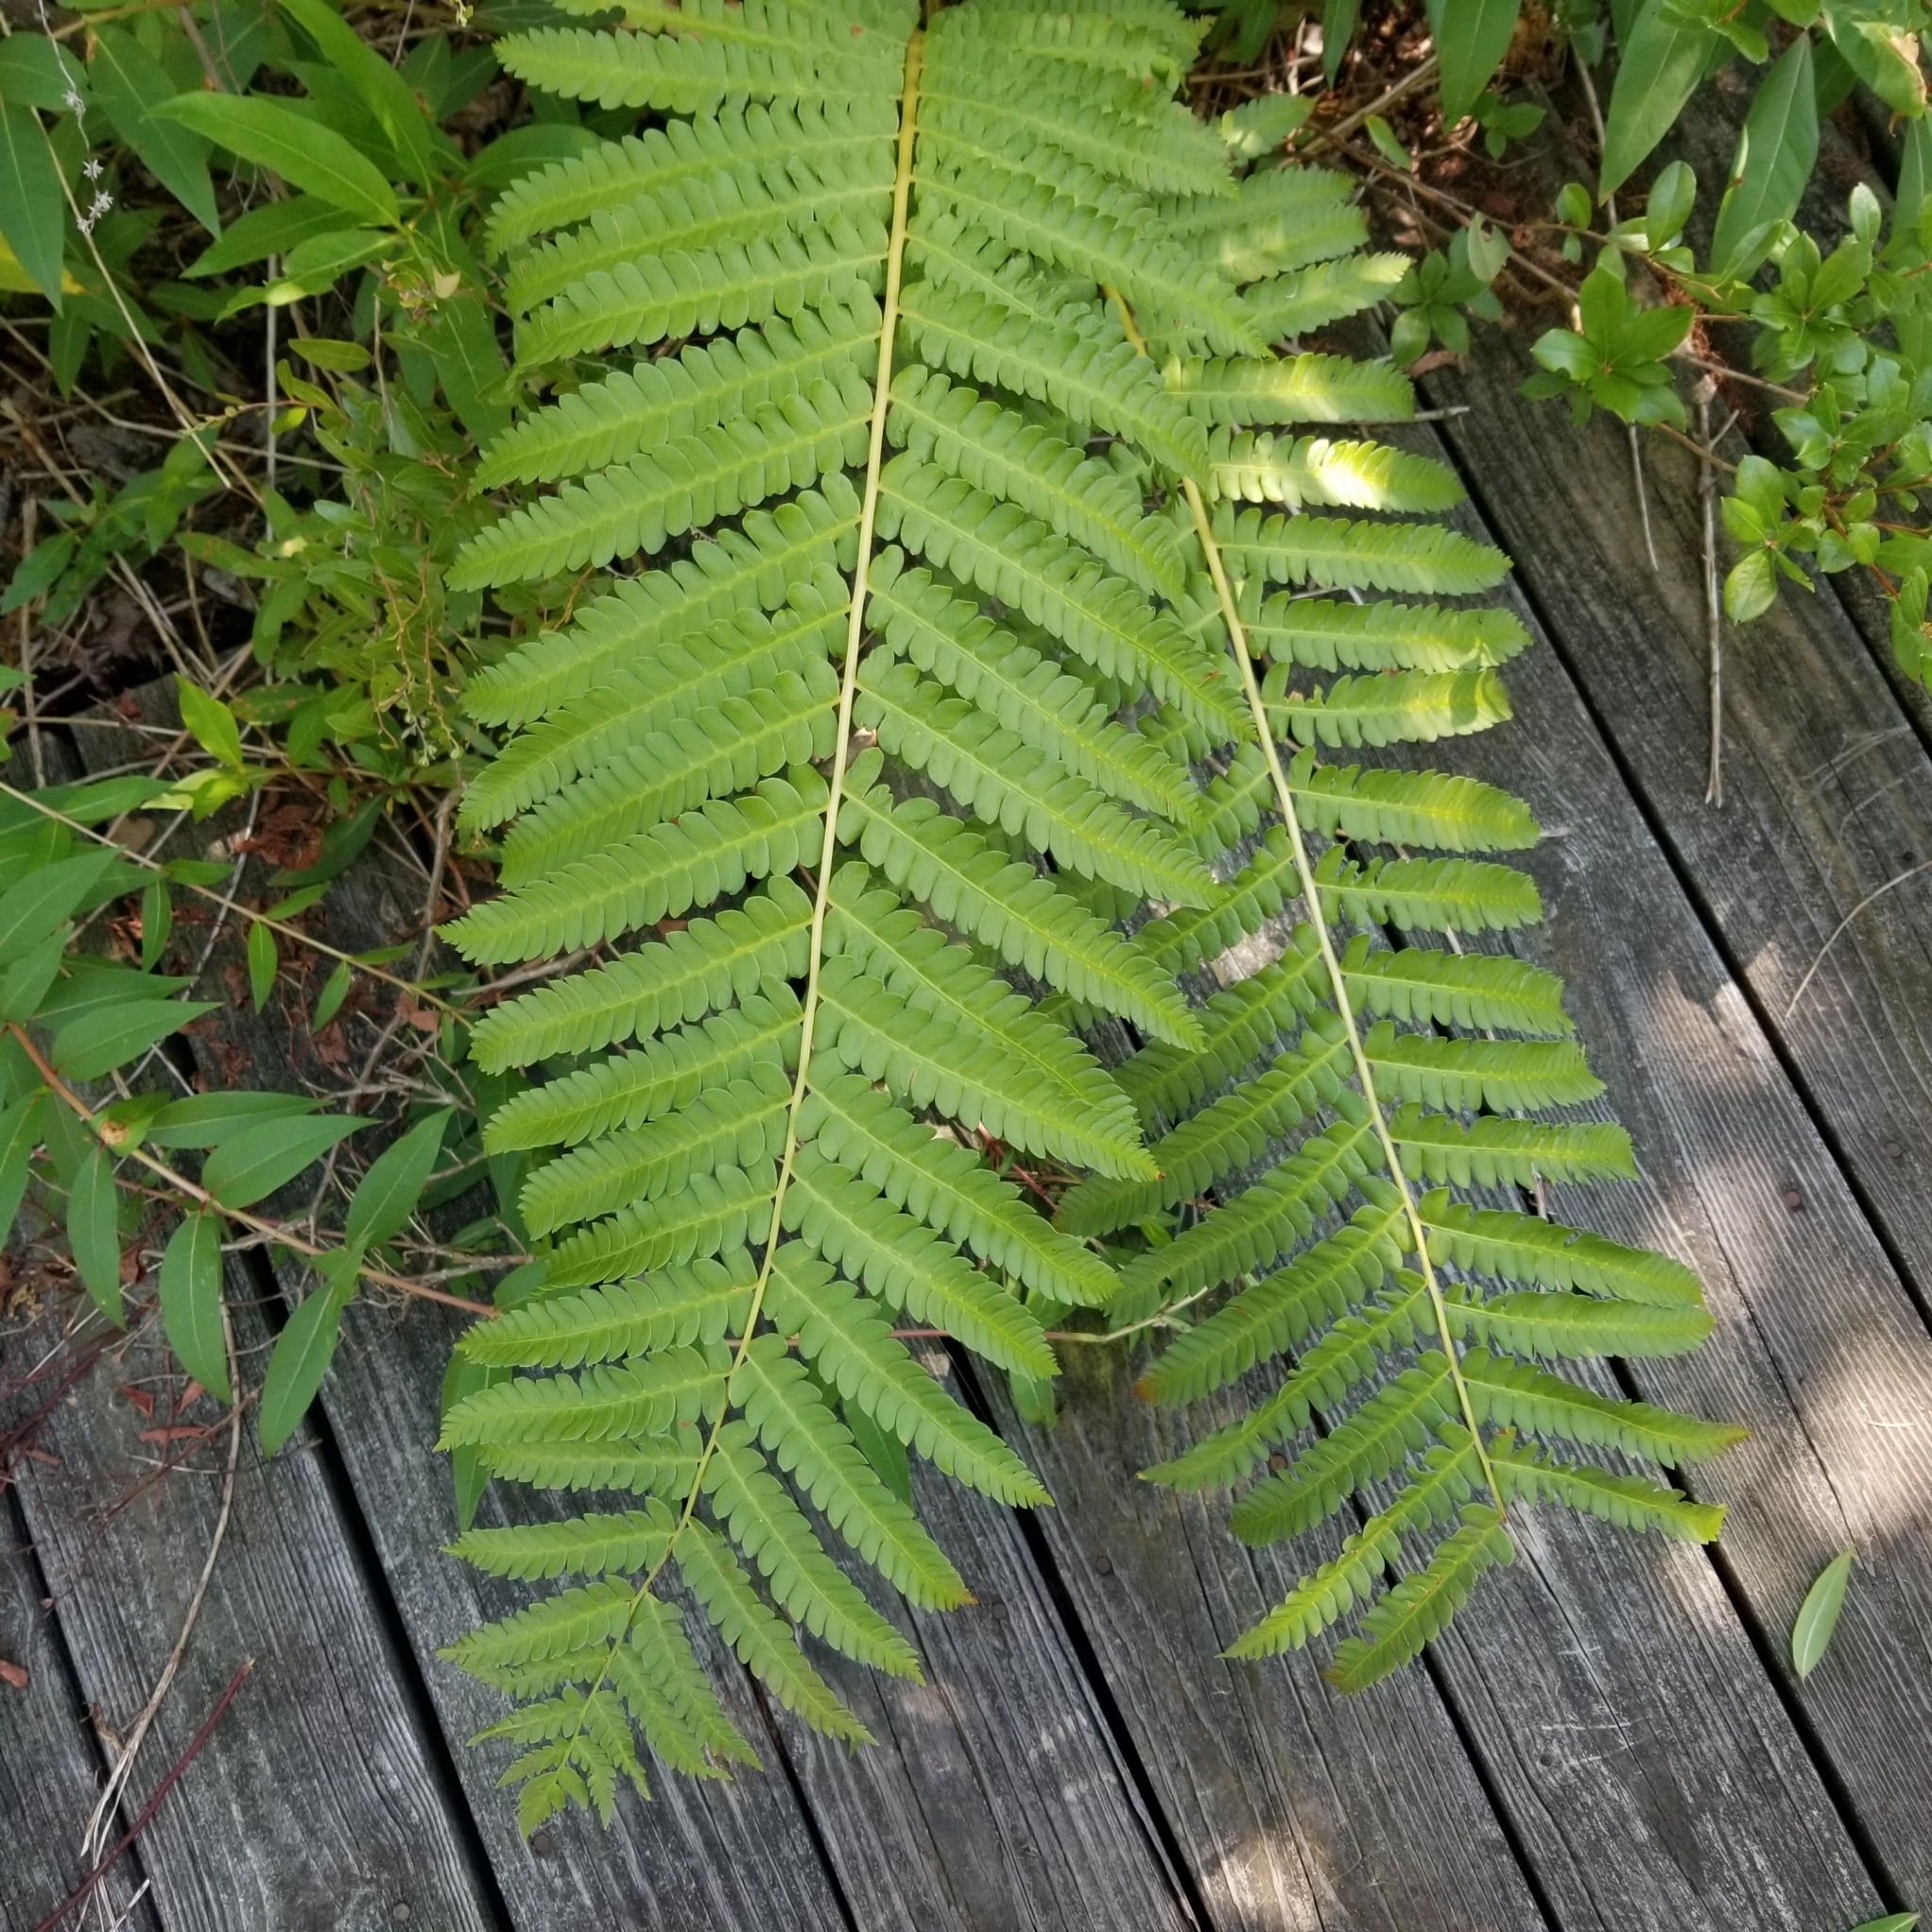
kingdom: Plantae
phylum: Tracheophyta
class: Polypodiopsida
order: Osmundales
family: Osmundaceae
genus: Osmundastrum
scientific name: Osmundastrum cinnamomeum
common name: Cinnamon fern
